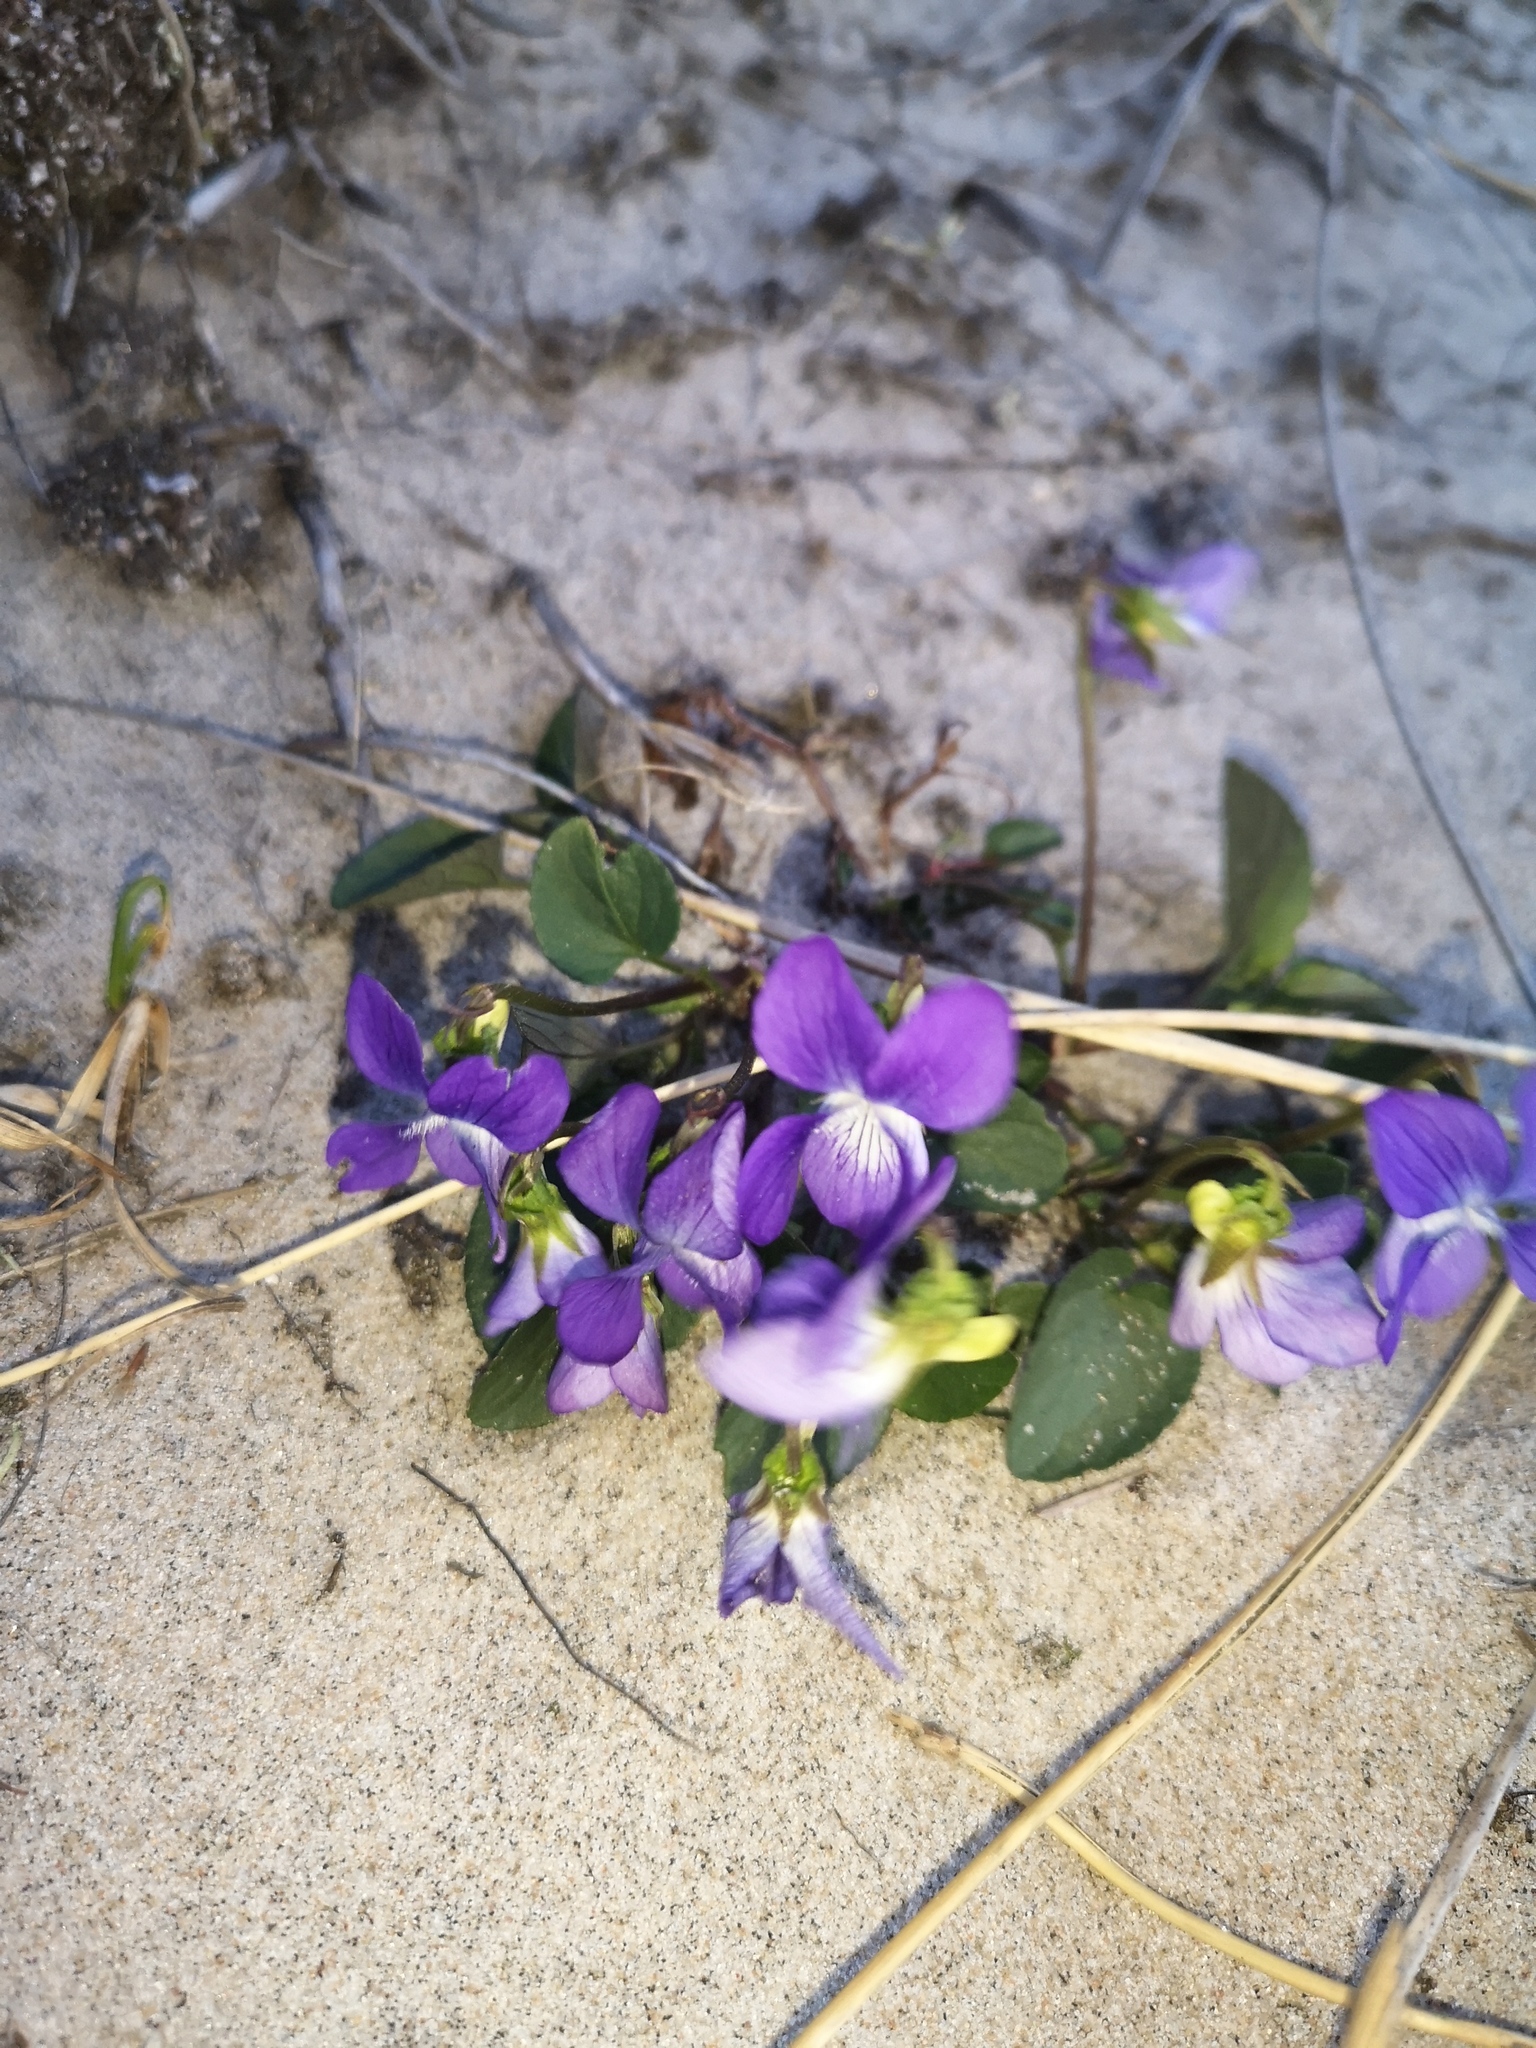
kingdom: Plantae
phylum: Tracheophyta
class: Magnoliopsida
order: Malpighiales
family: Violaceae
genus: Viola
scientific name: Viola canina
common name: Heath dog-violet
